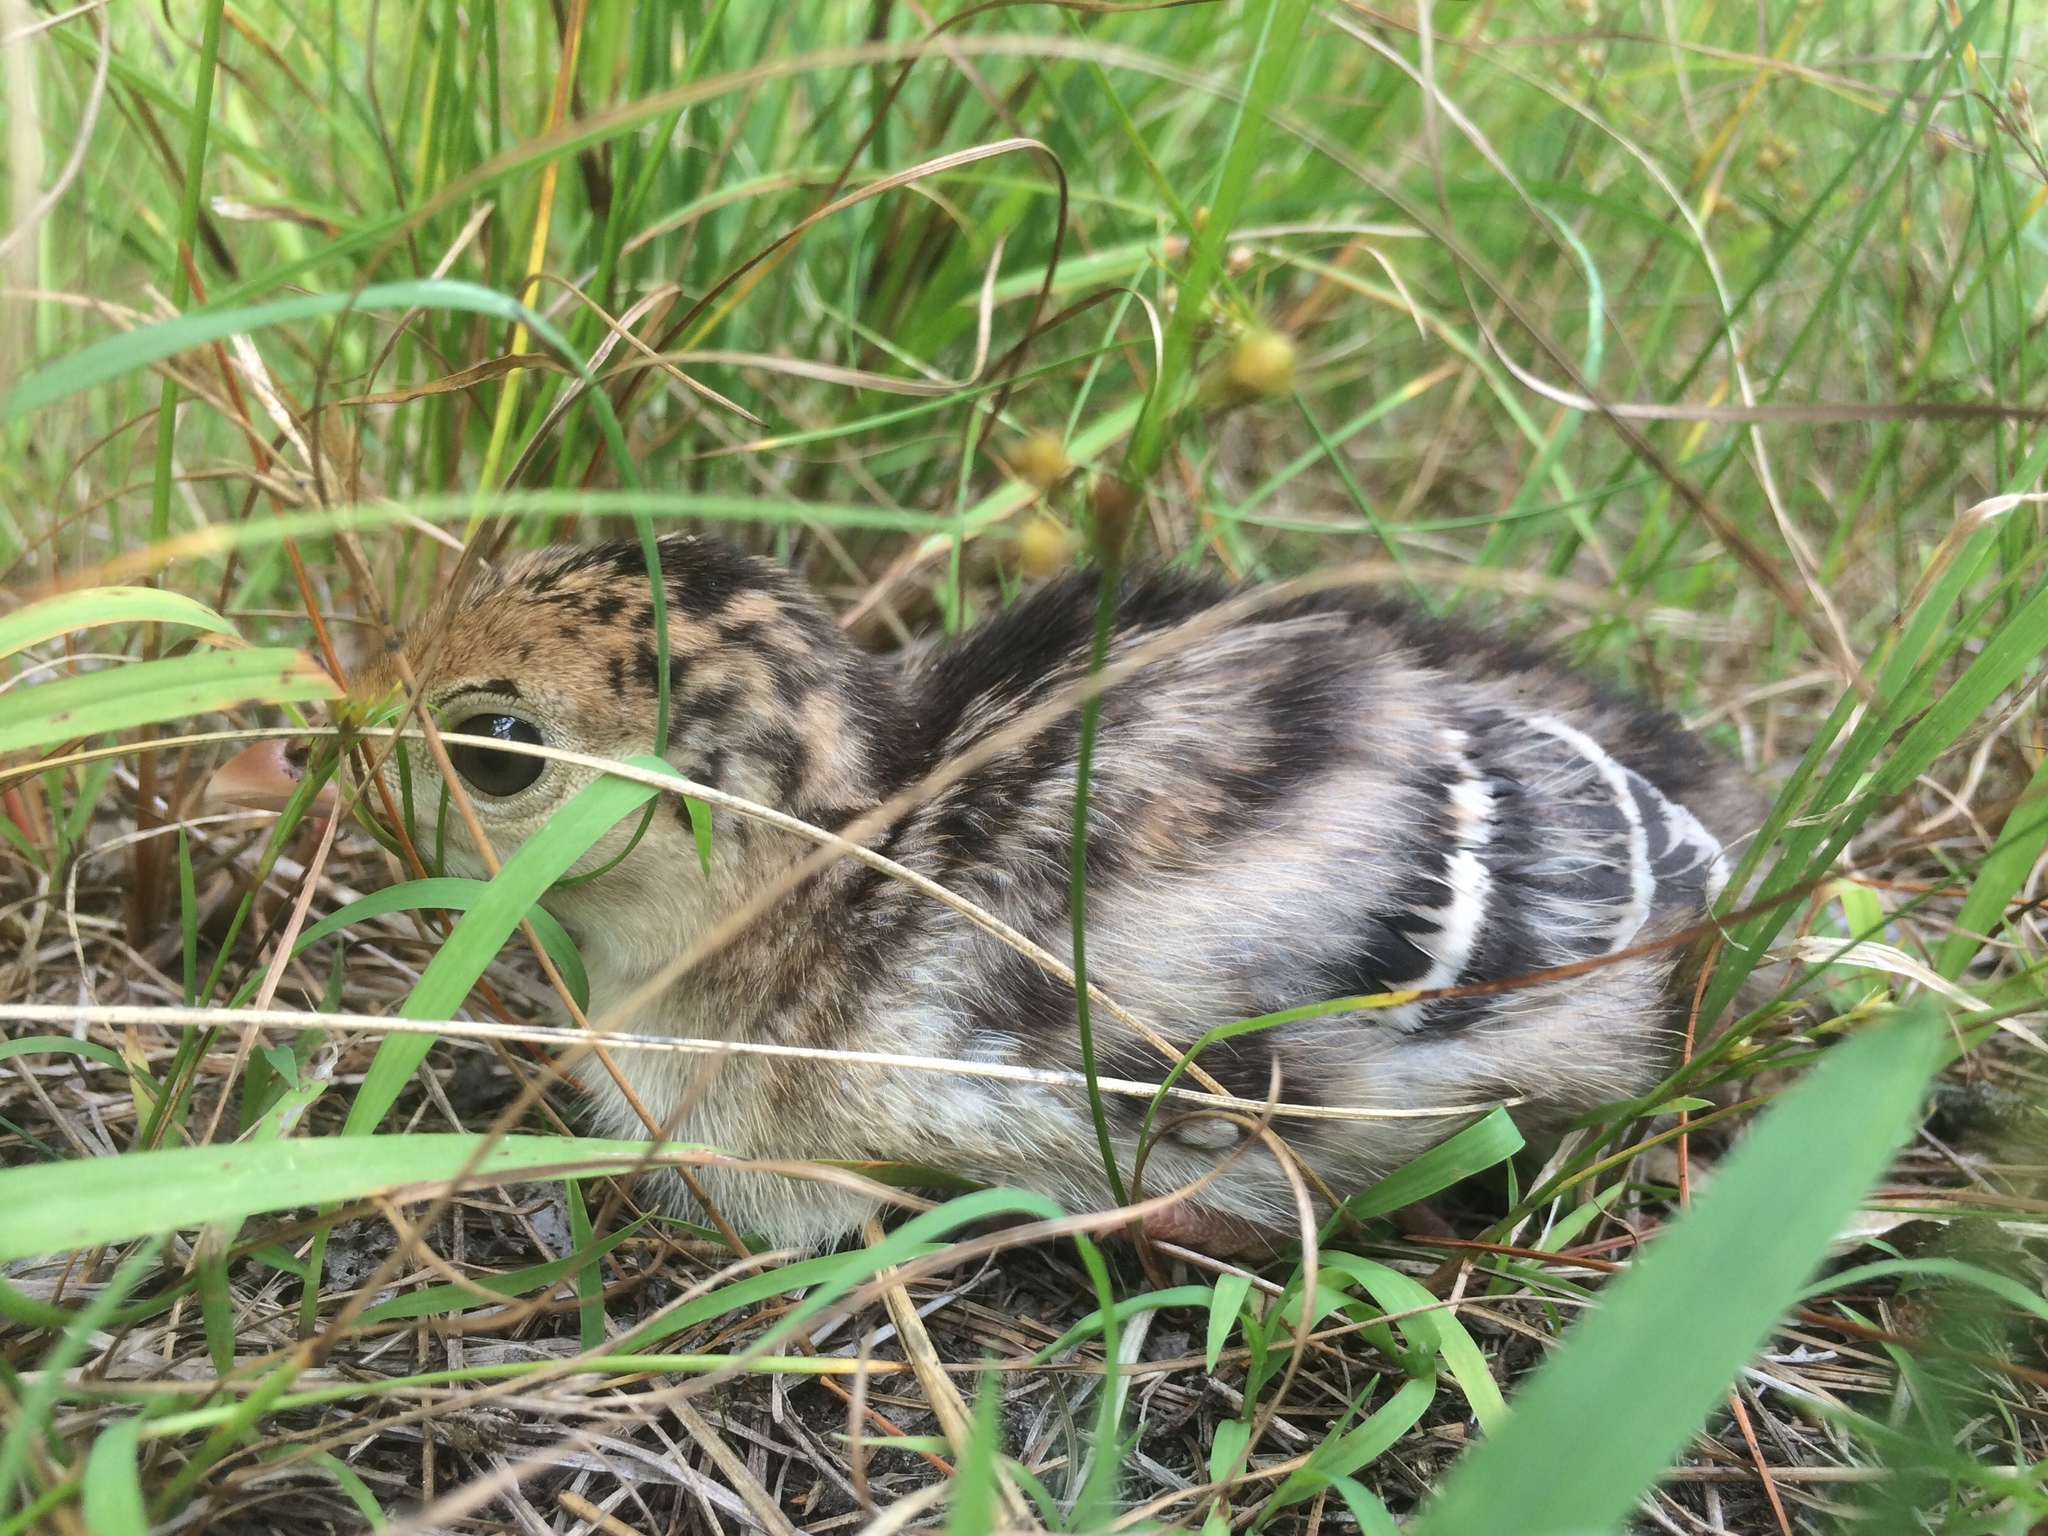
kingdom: Animalia
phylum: Chordata
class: Aves
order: Galliformes
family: Phasianidae
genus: Meleagris
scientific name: Meleagris gallopavo
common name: Wild turkey
